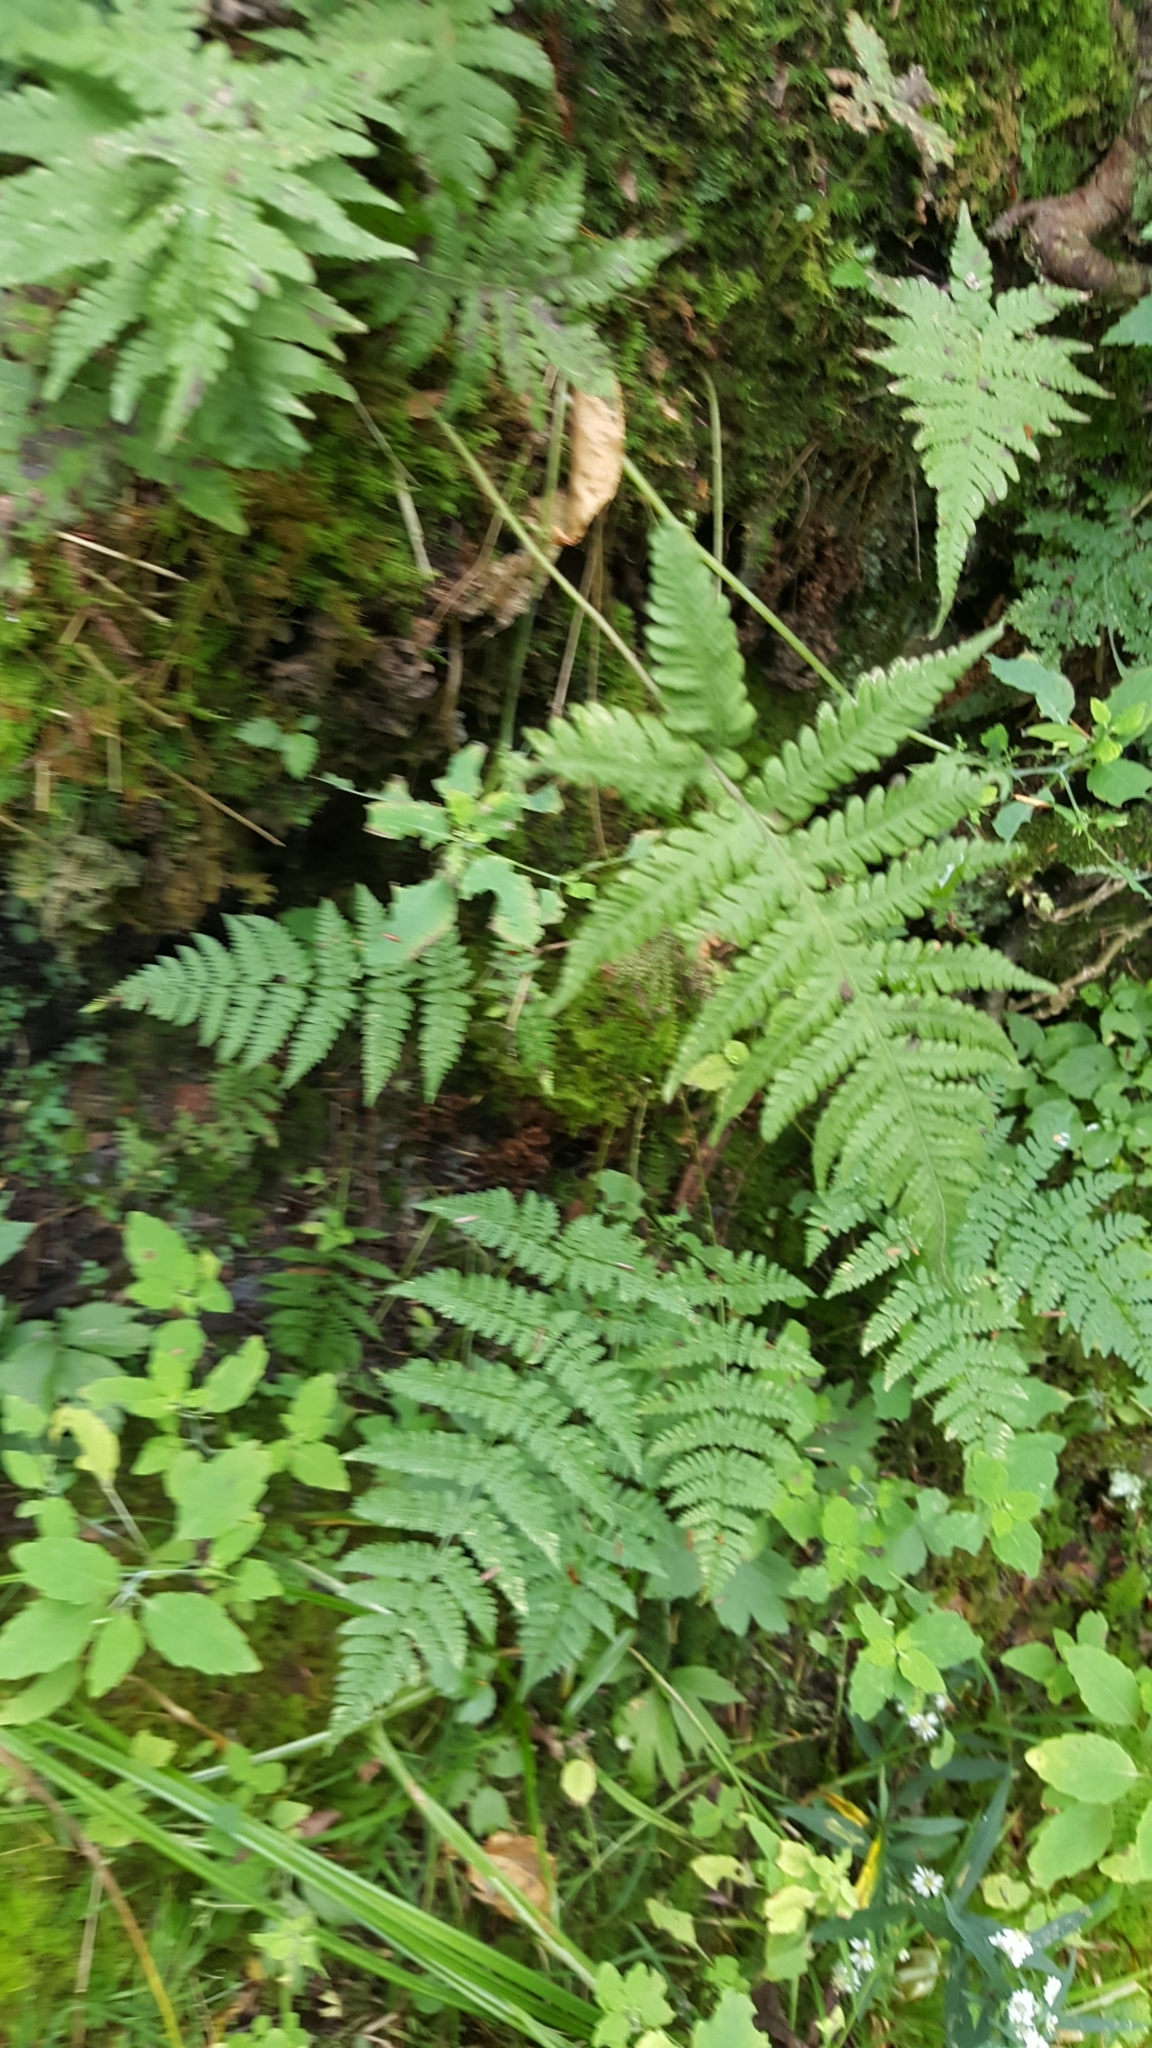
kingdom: Plantae
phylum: Tracheophyta
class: Polypodiopsida
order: Polypodiales
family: Thelypteridaceae
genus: Phegopteris
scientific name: Phegopteris connectilis
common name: Beech fern
